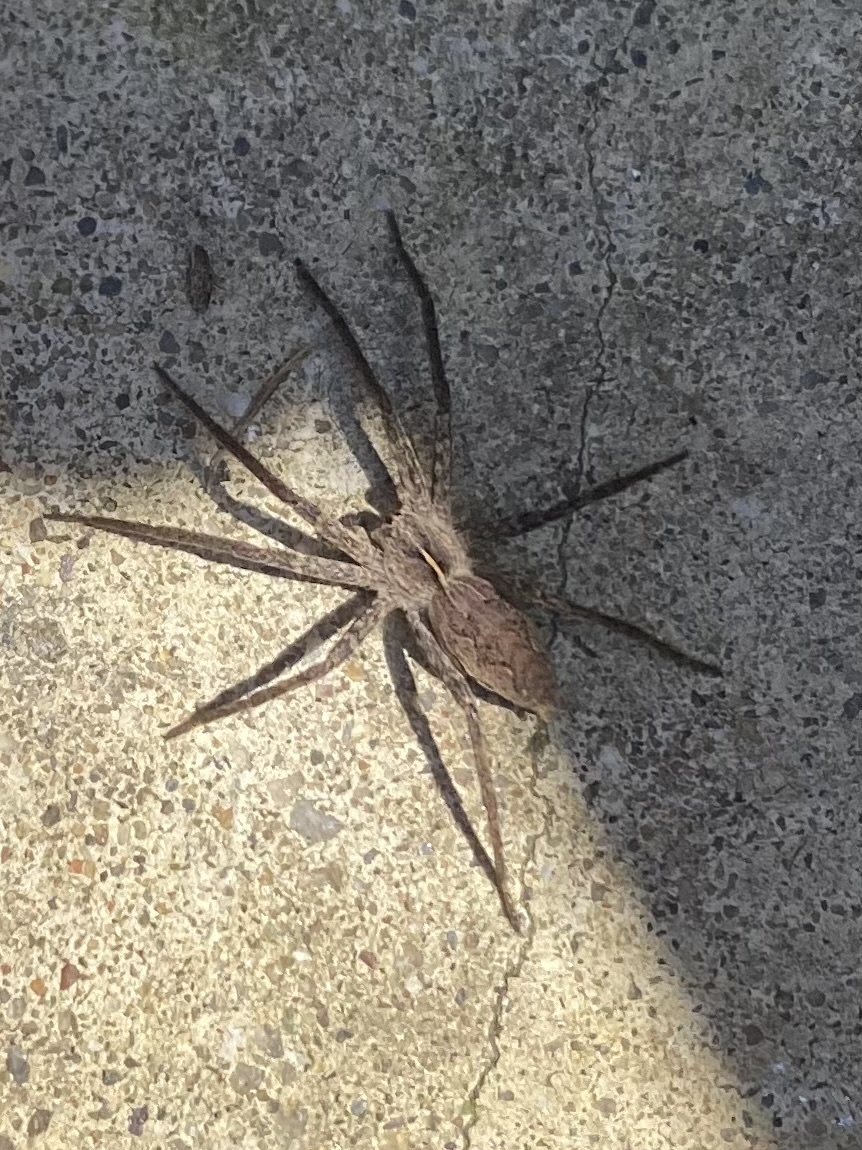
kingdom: Animalia
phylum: Arthropoda
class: Arachnida
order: Araneae
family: Pisauridae
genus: Pisaura
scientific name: Pisaura
